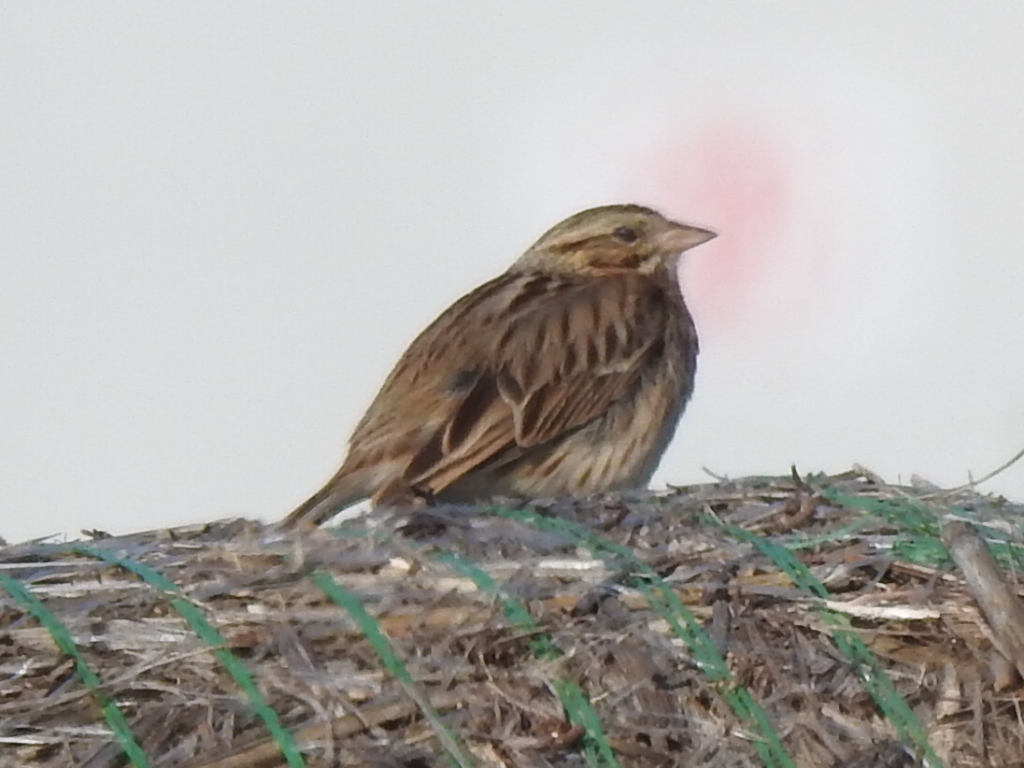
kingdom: Animalia
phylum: Chordata
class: Aves
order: Passeriformes
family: Passerellidae
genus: Passerculus
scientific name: Passerculus sandwichensis
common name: Savannah sparrow
